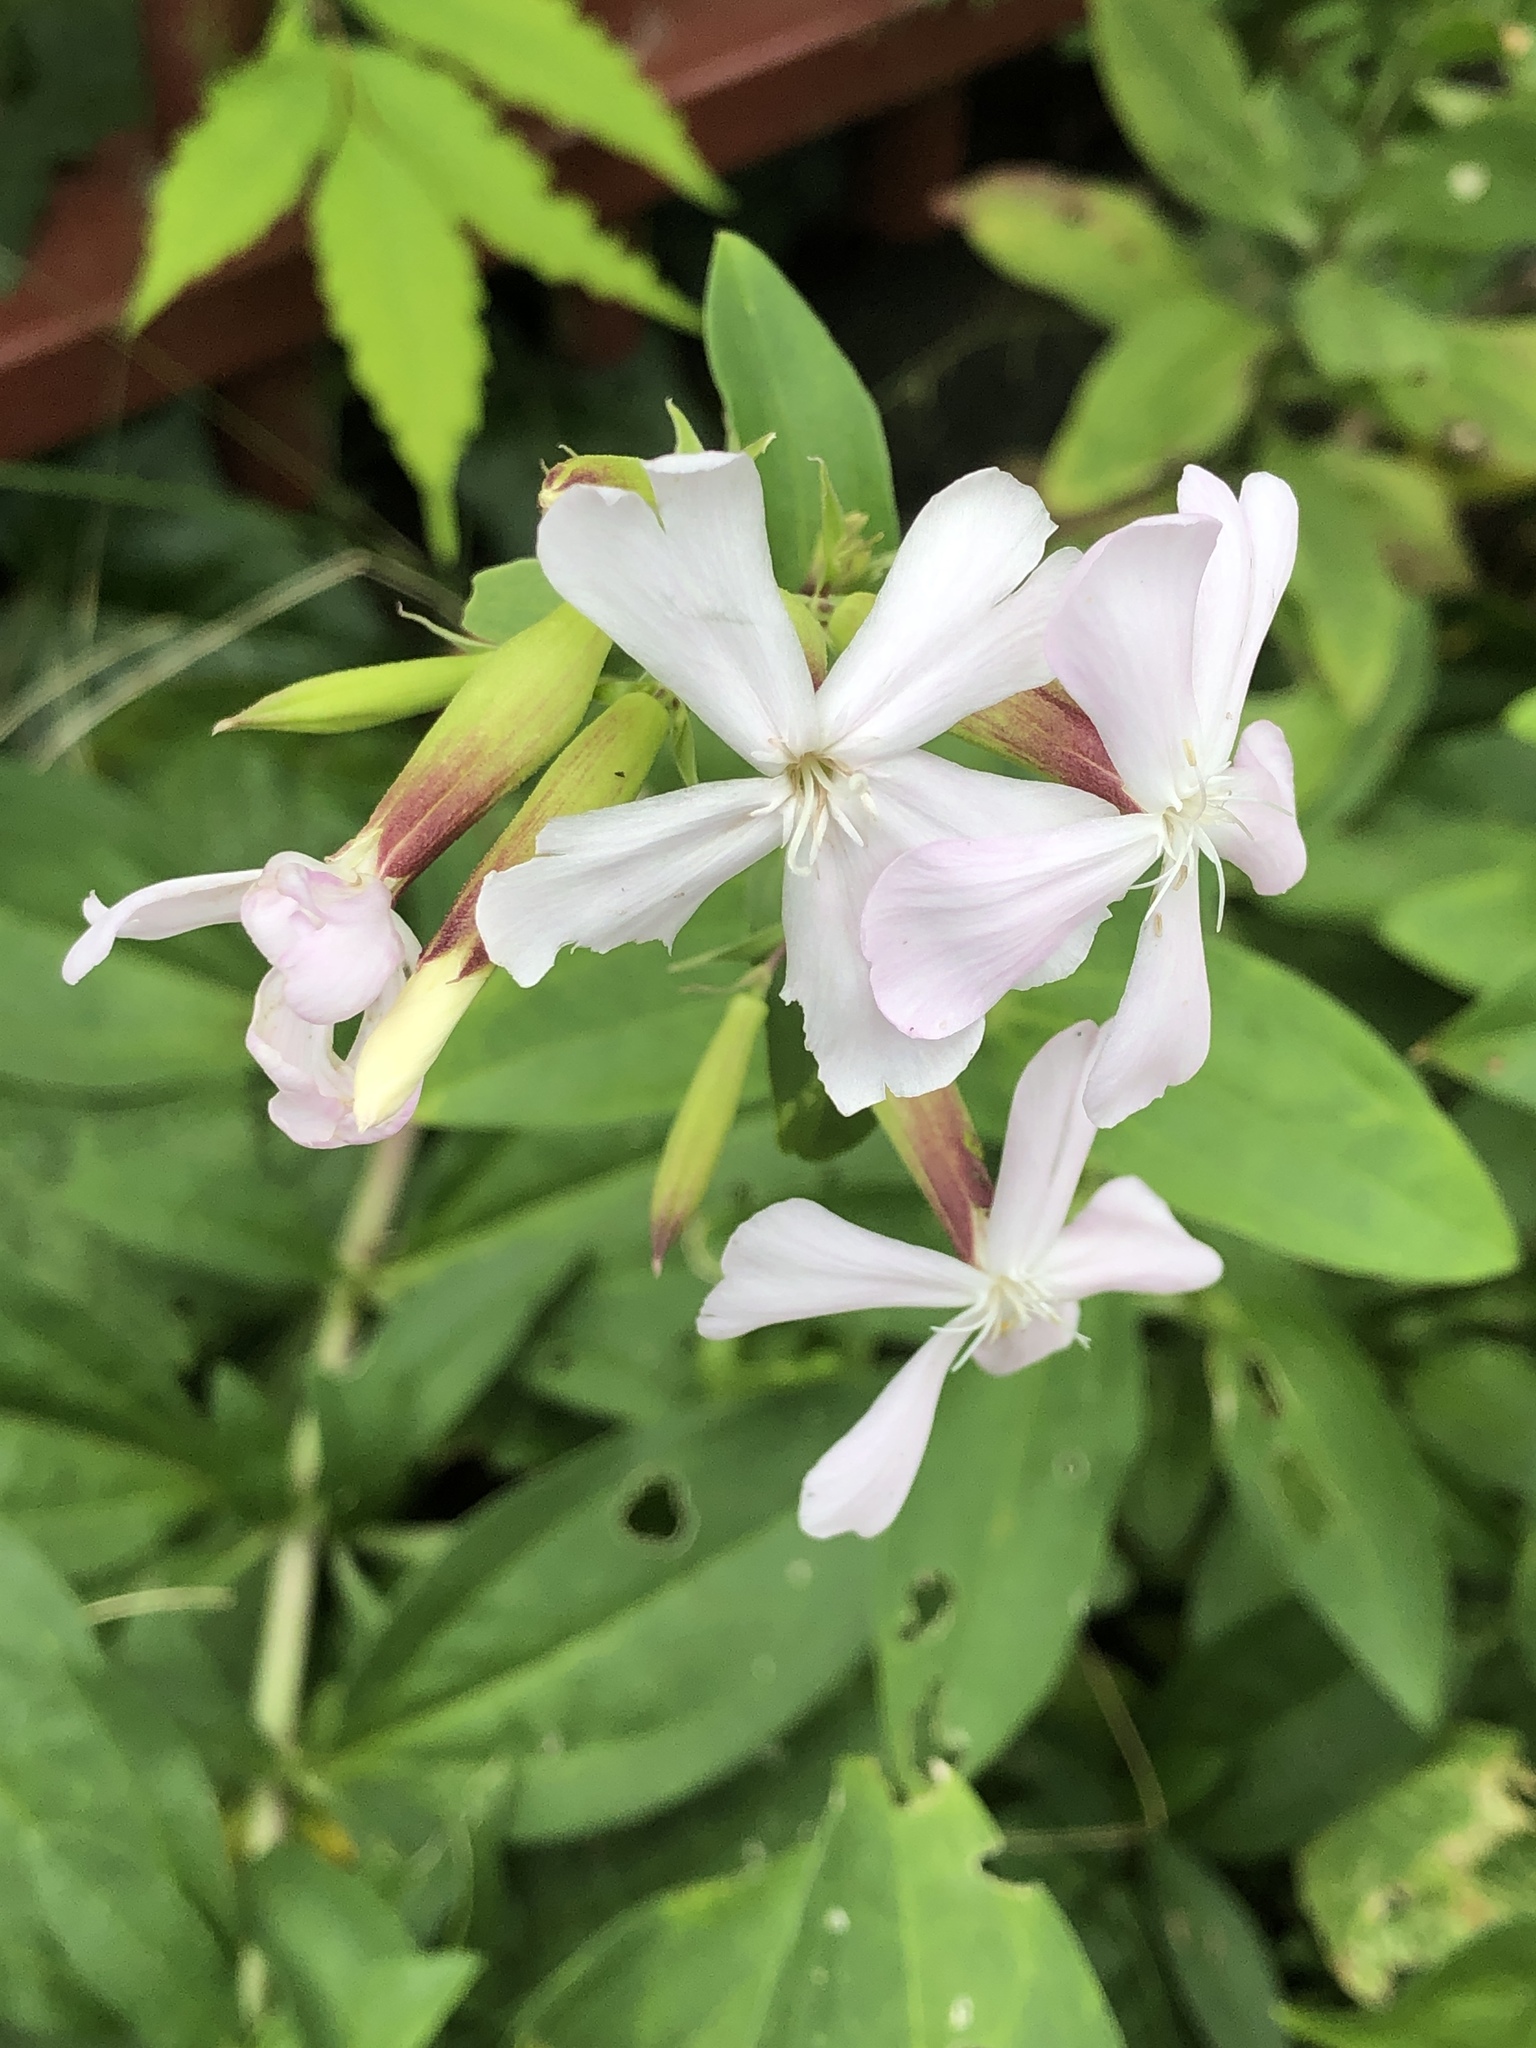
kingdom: Plantae
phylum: Tracheophyta
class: Magnoliopsida
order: Caryophyllales
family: Caryophyllaceae
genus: Saponaria
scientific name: Saponaria officinalis
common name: Soapwort
